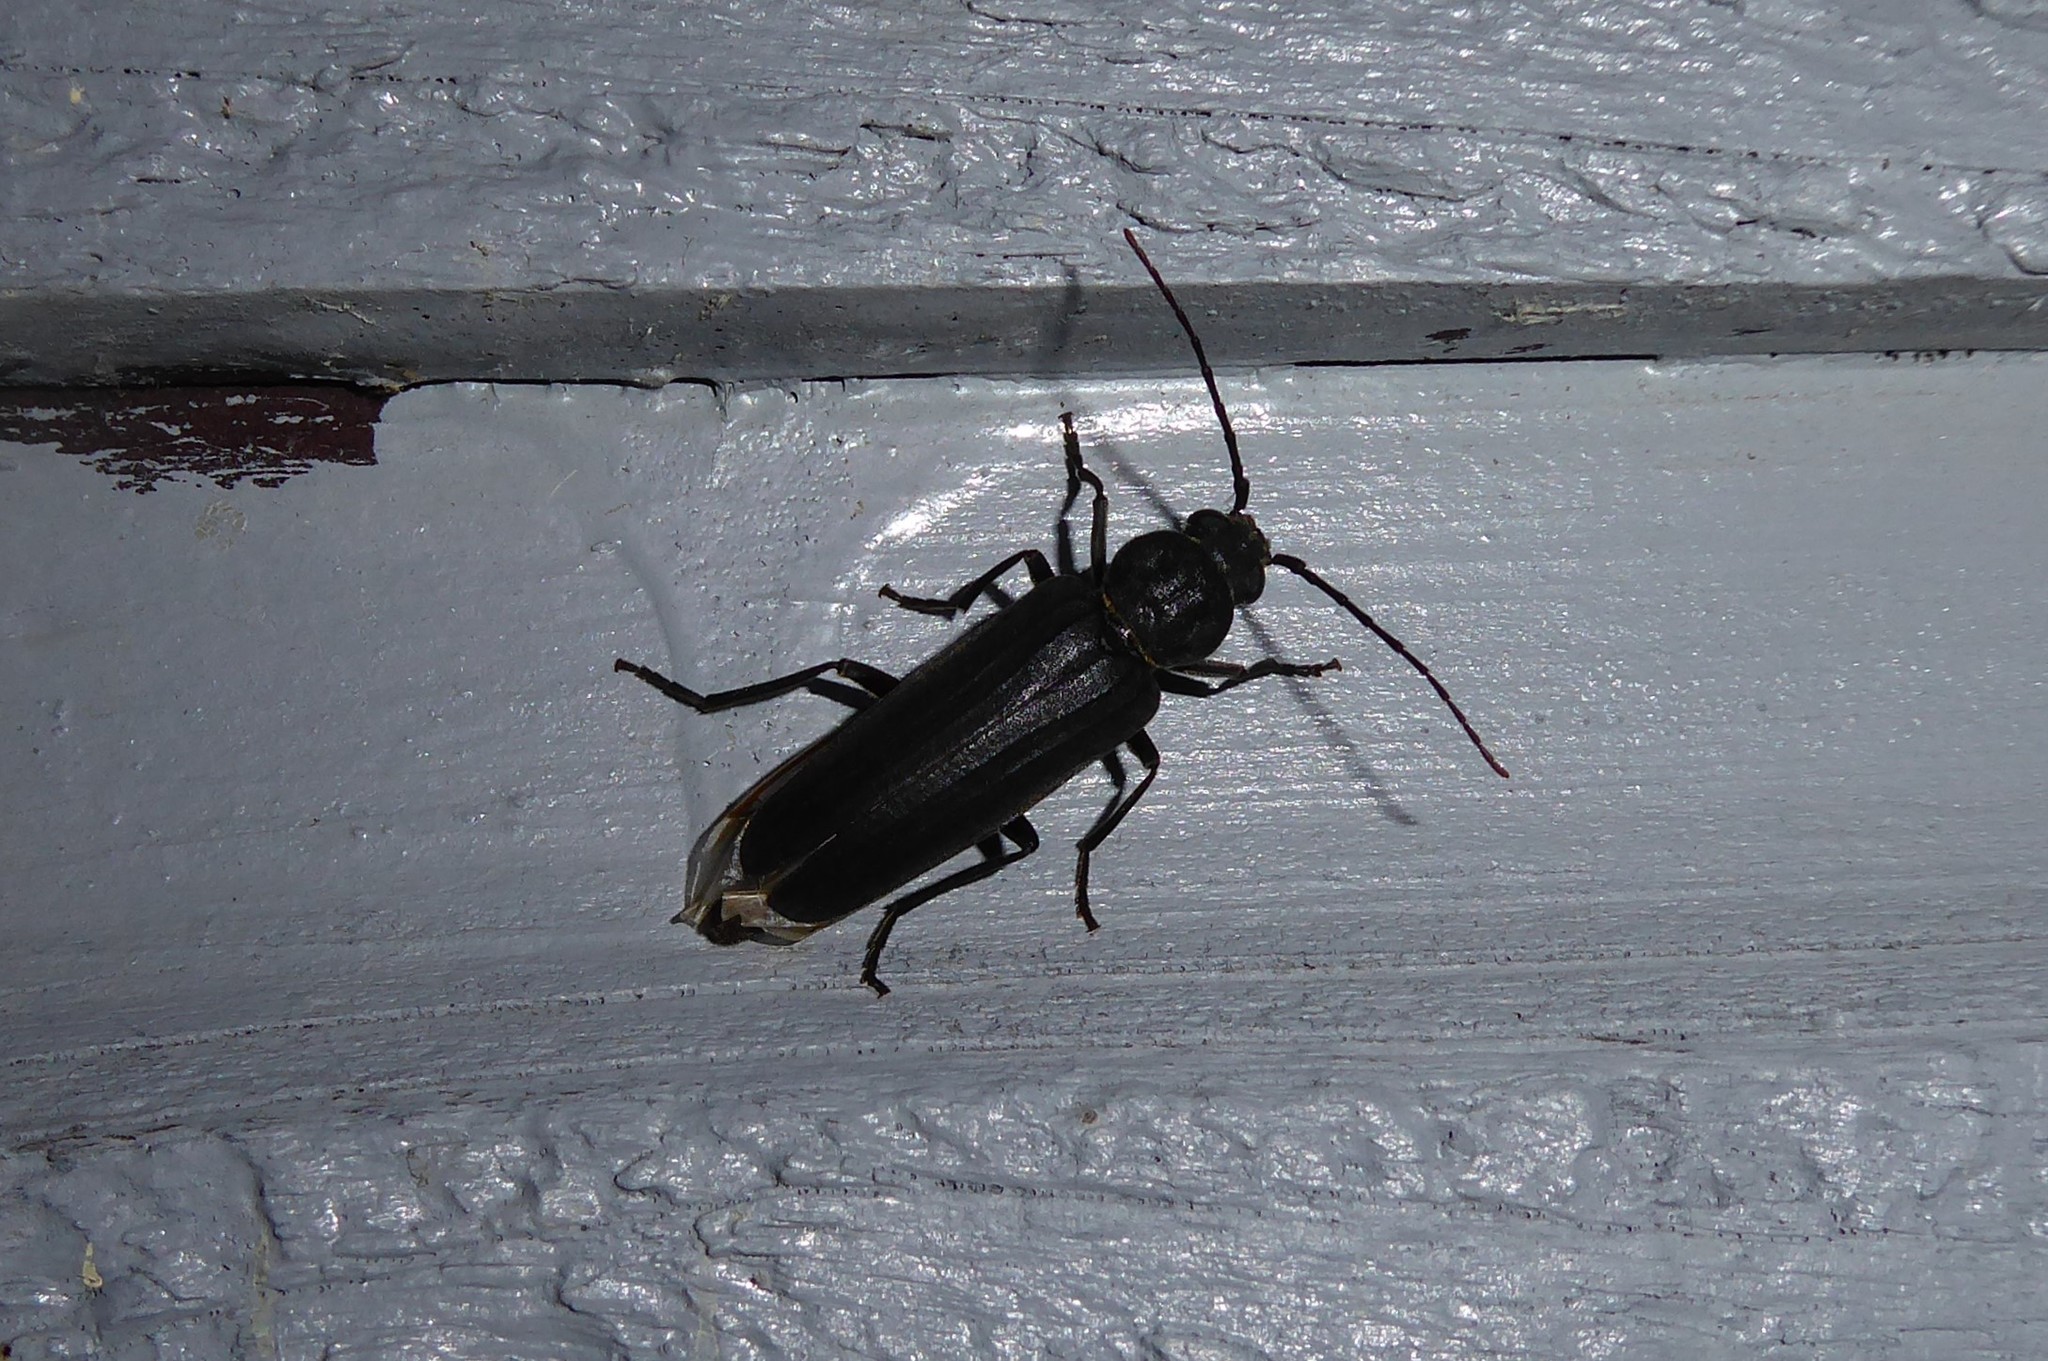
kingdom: Animalia
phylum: Arthropoda
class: Insecta
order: Coleoptera
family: Cerambycidae
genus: Arhopalus
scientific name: Arhopalus ferus
